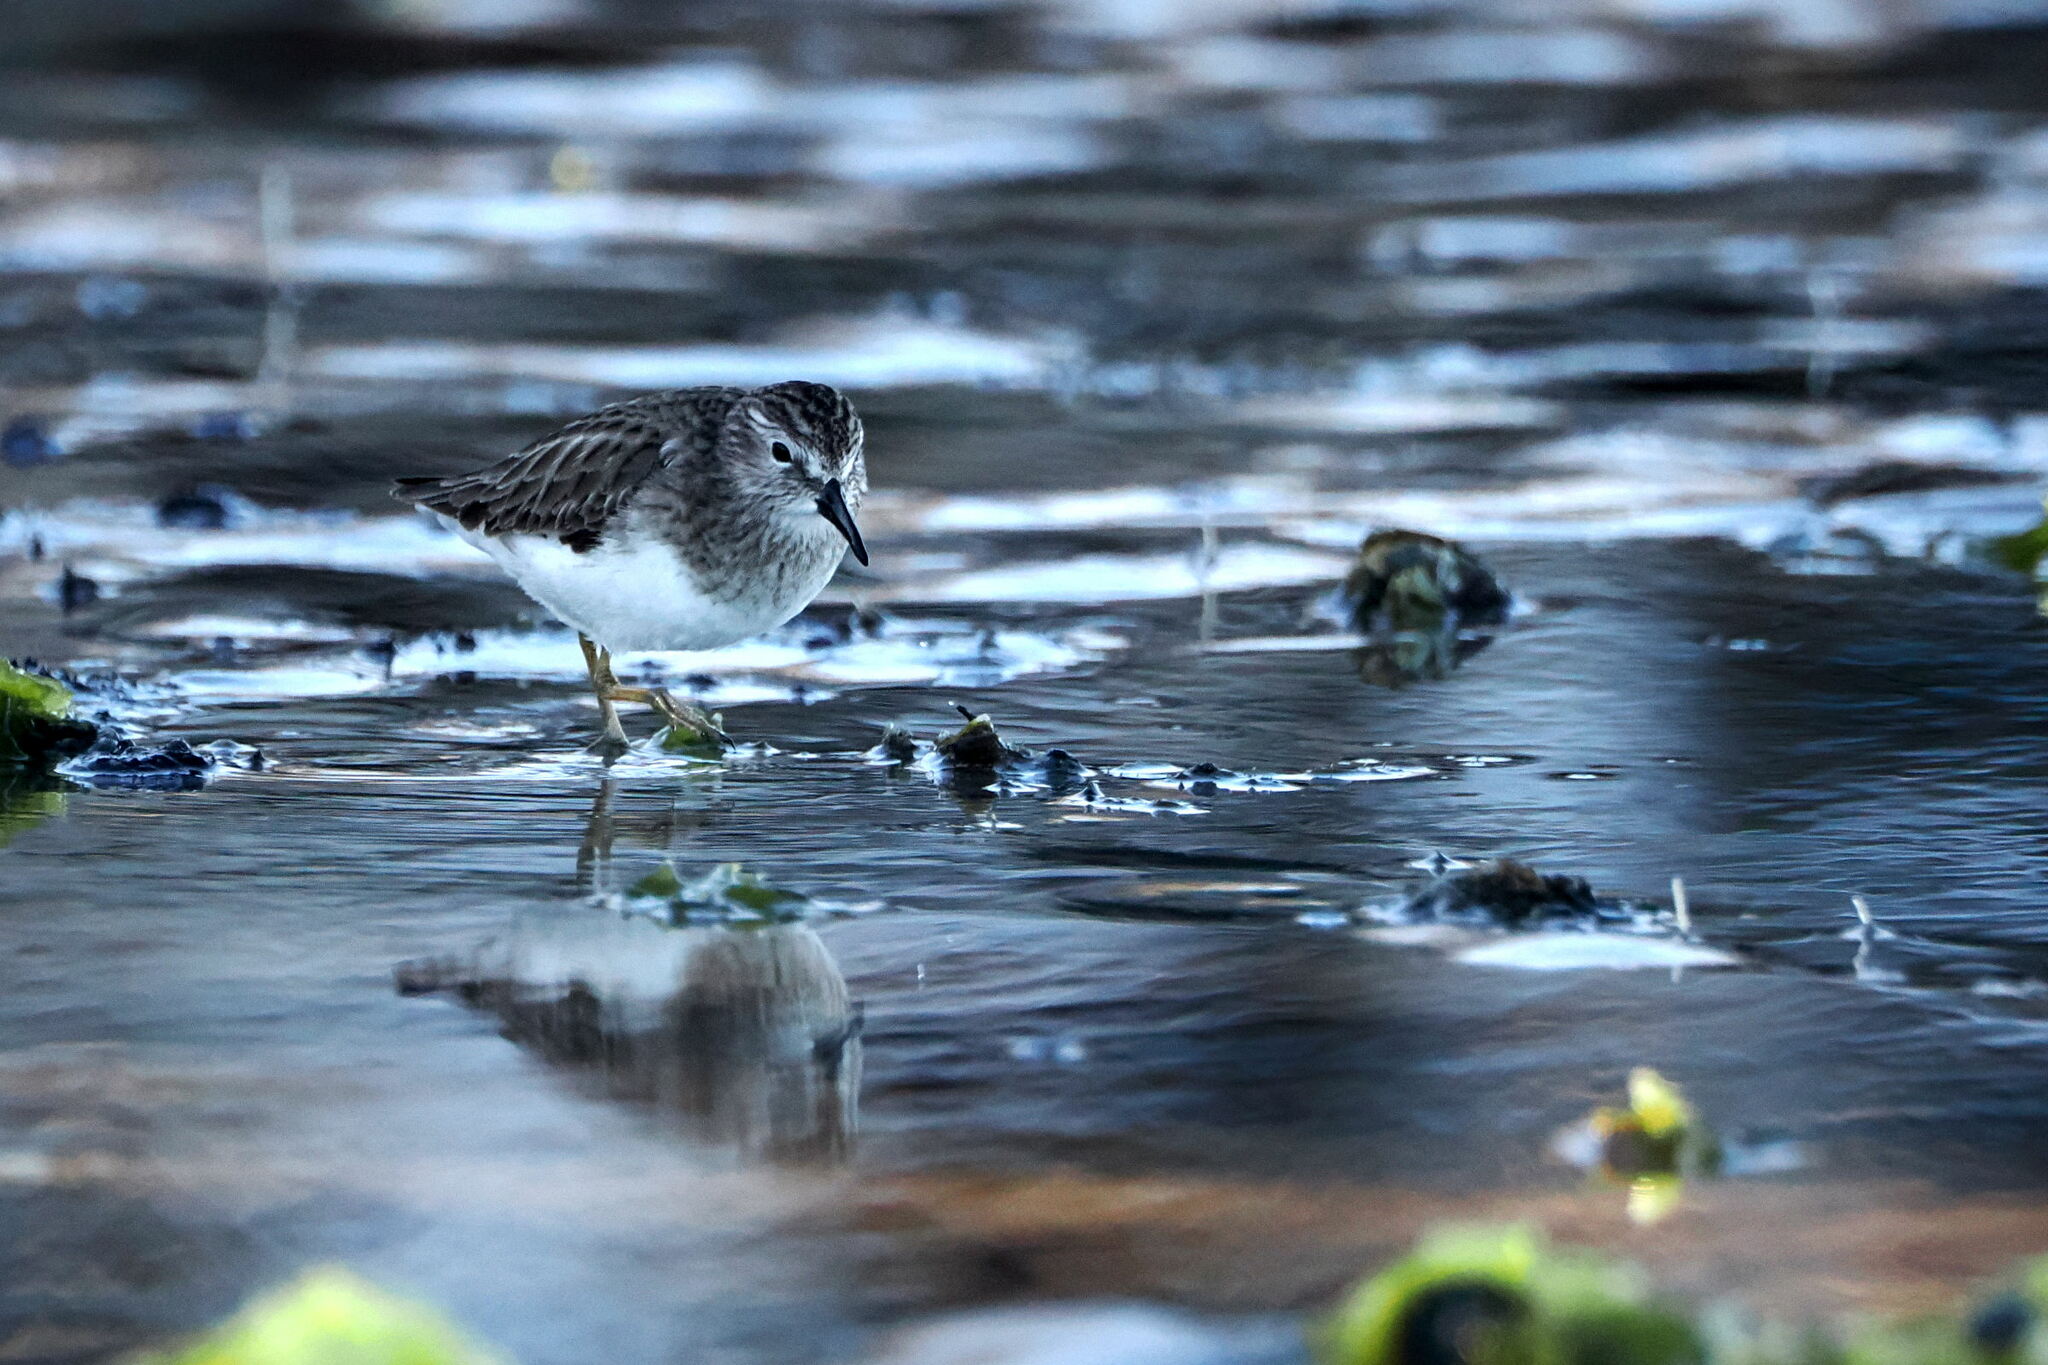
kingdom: Animalia
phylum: Chordata
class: Aves
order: Charadriiformes
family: Scolopacidae
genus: Calidris
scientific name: Calidris minutilla
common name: Least sandpiper
